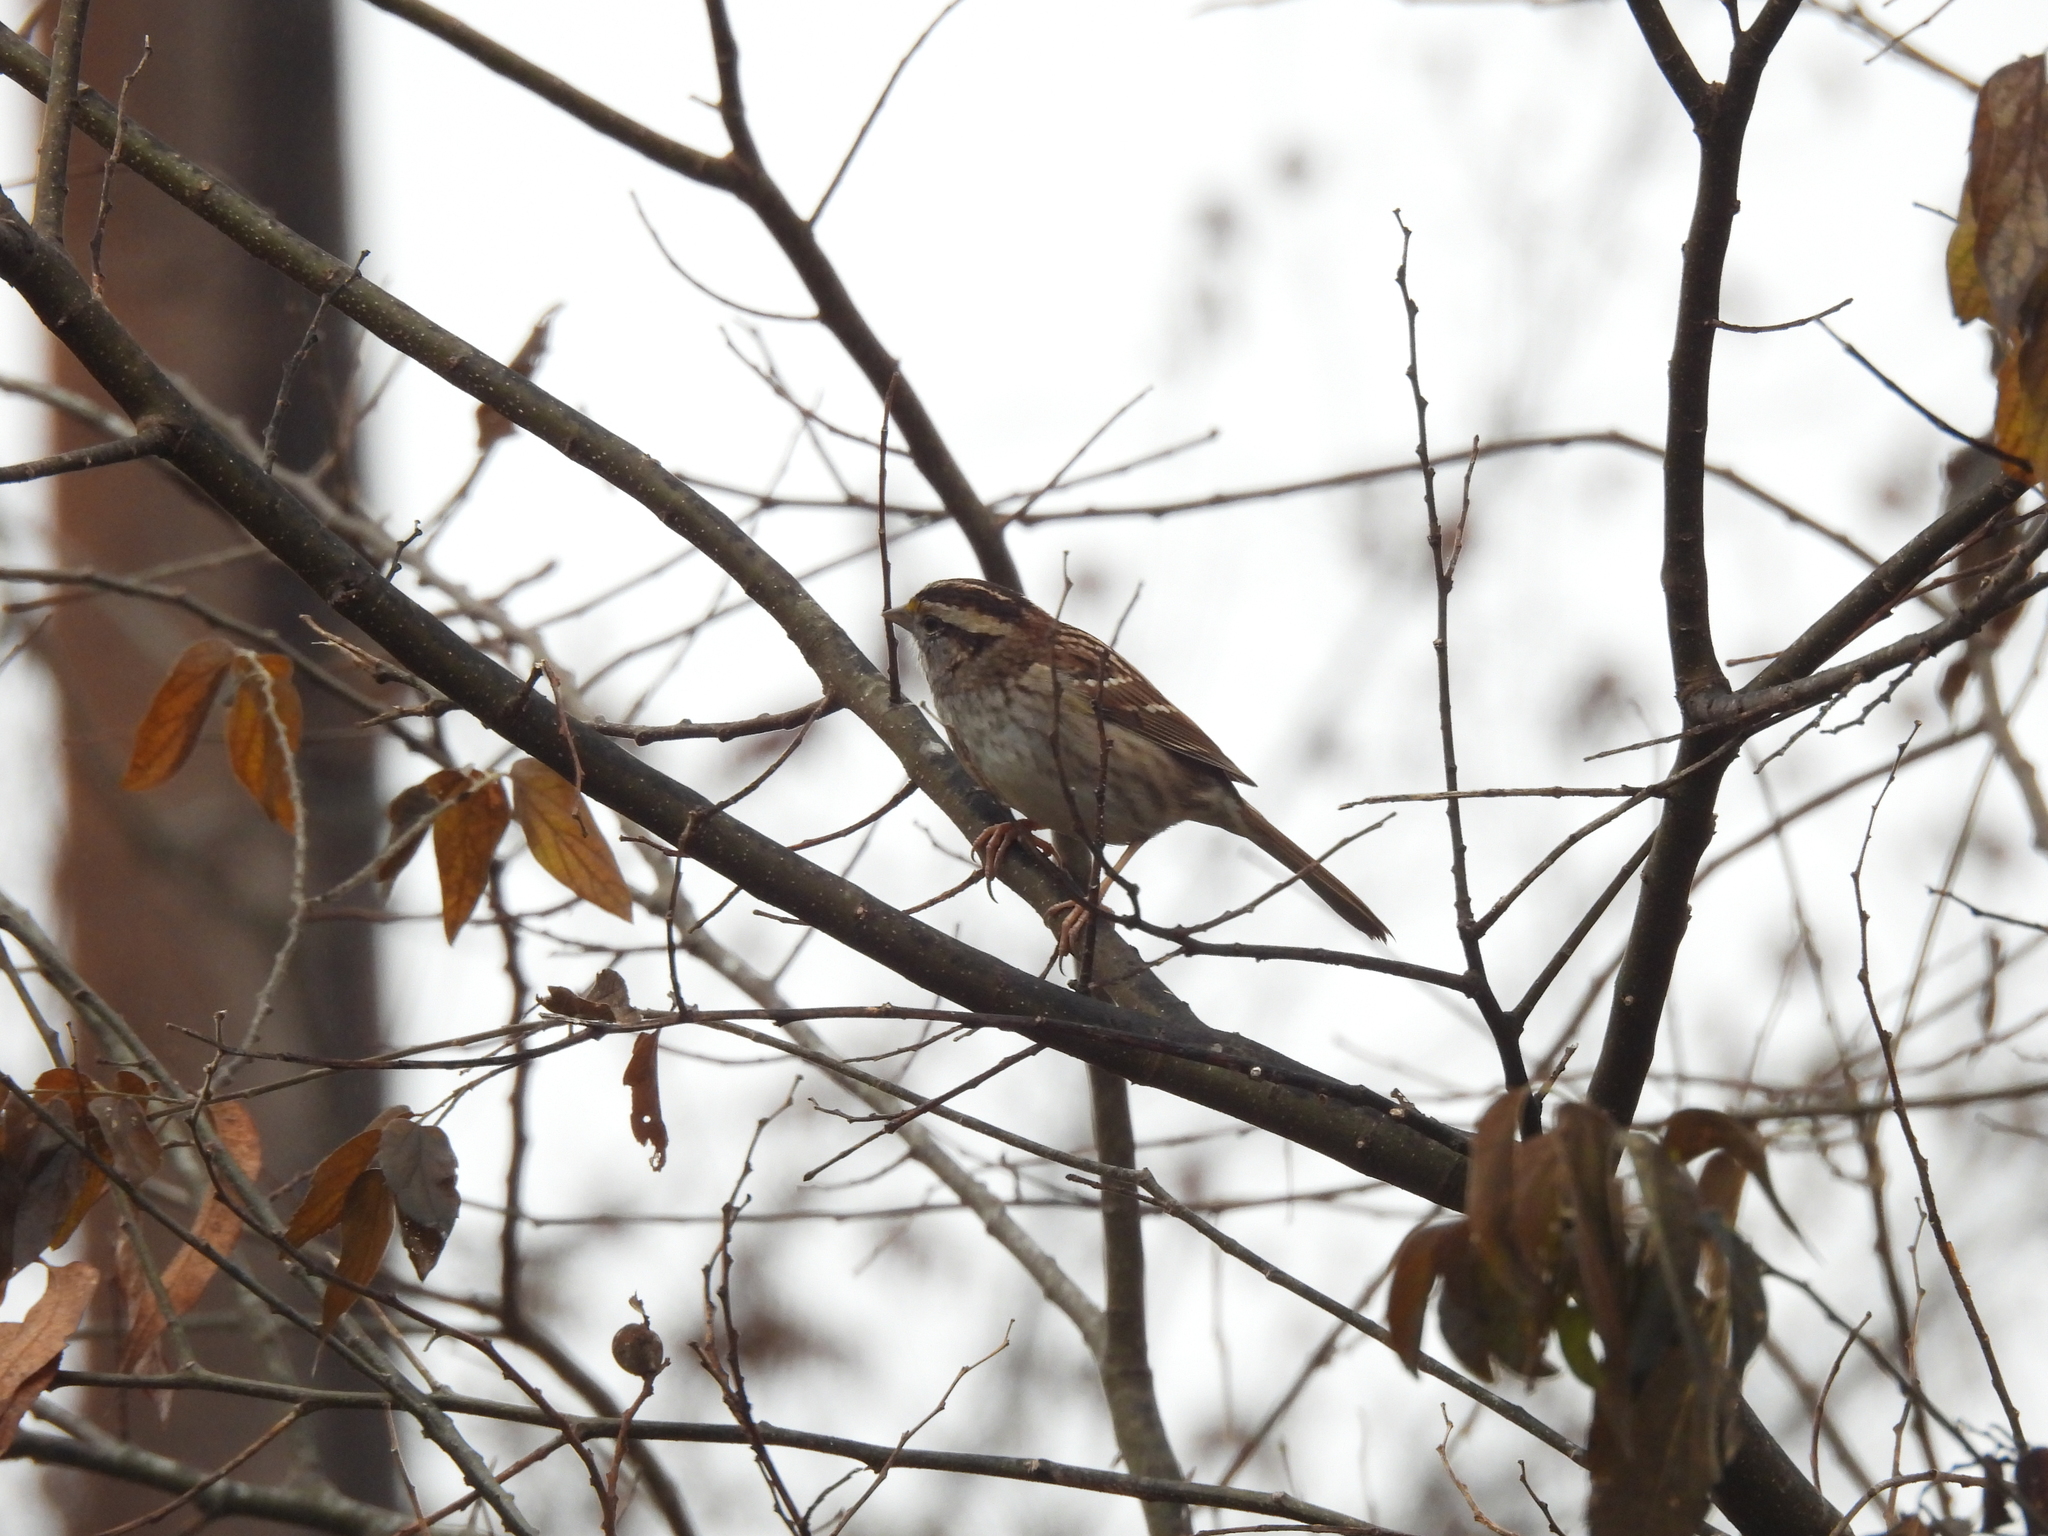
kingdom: Animalia
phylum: Chordata
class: Aves
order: Passeriformes
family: Passerellidae
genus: Zonotrichia
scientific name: Zonotrichia albicollis
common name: White-throated sparrow
